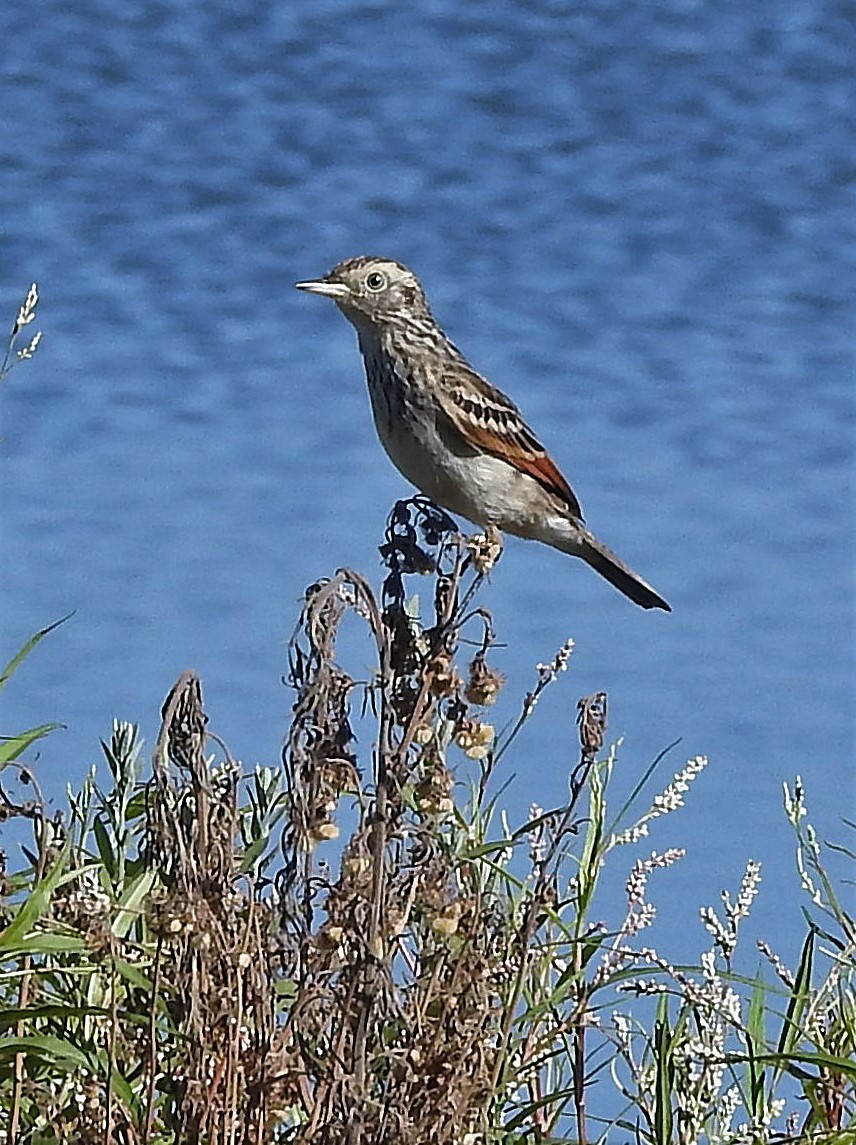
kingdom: Animalia
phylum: Chordata
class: Aves
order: Passeriformes
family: Tyrannidae
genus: Hymenops
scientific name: Hymenops perspicillatus
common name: Spectacled tyrant
